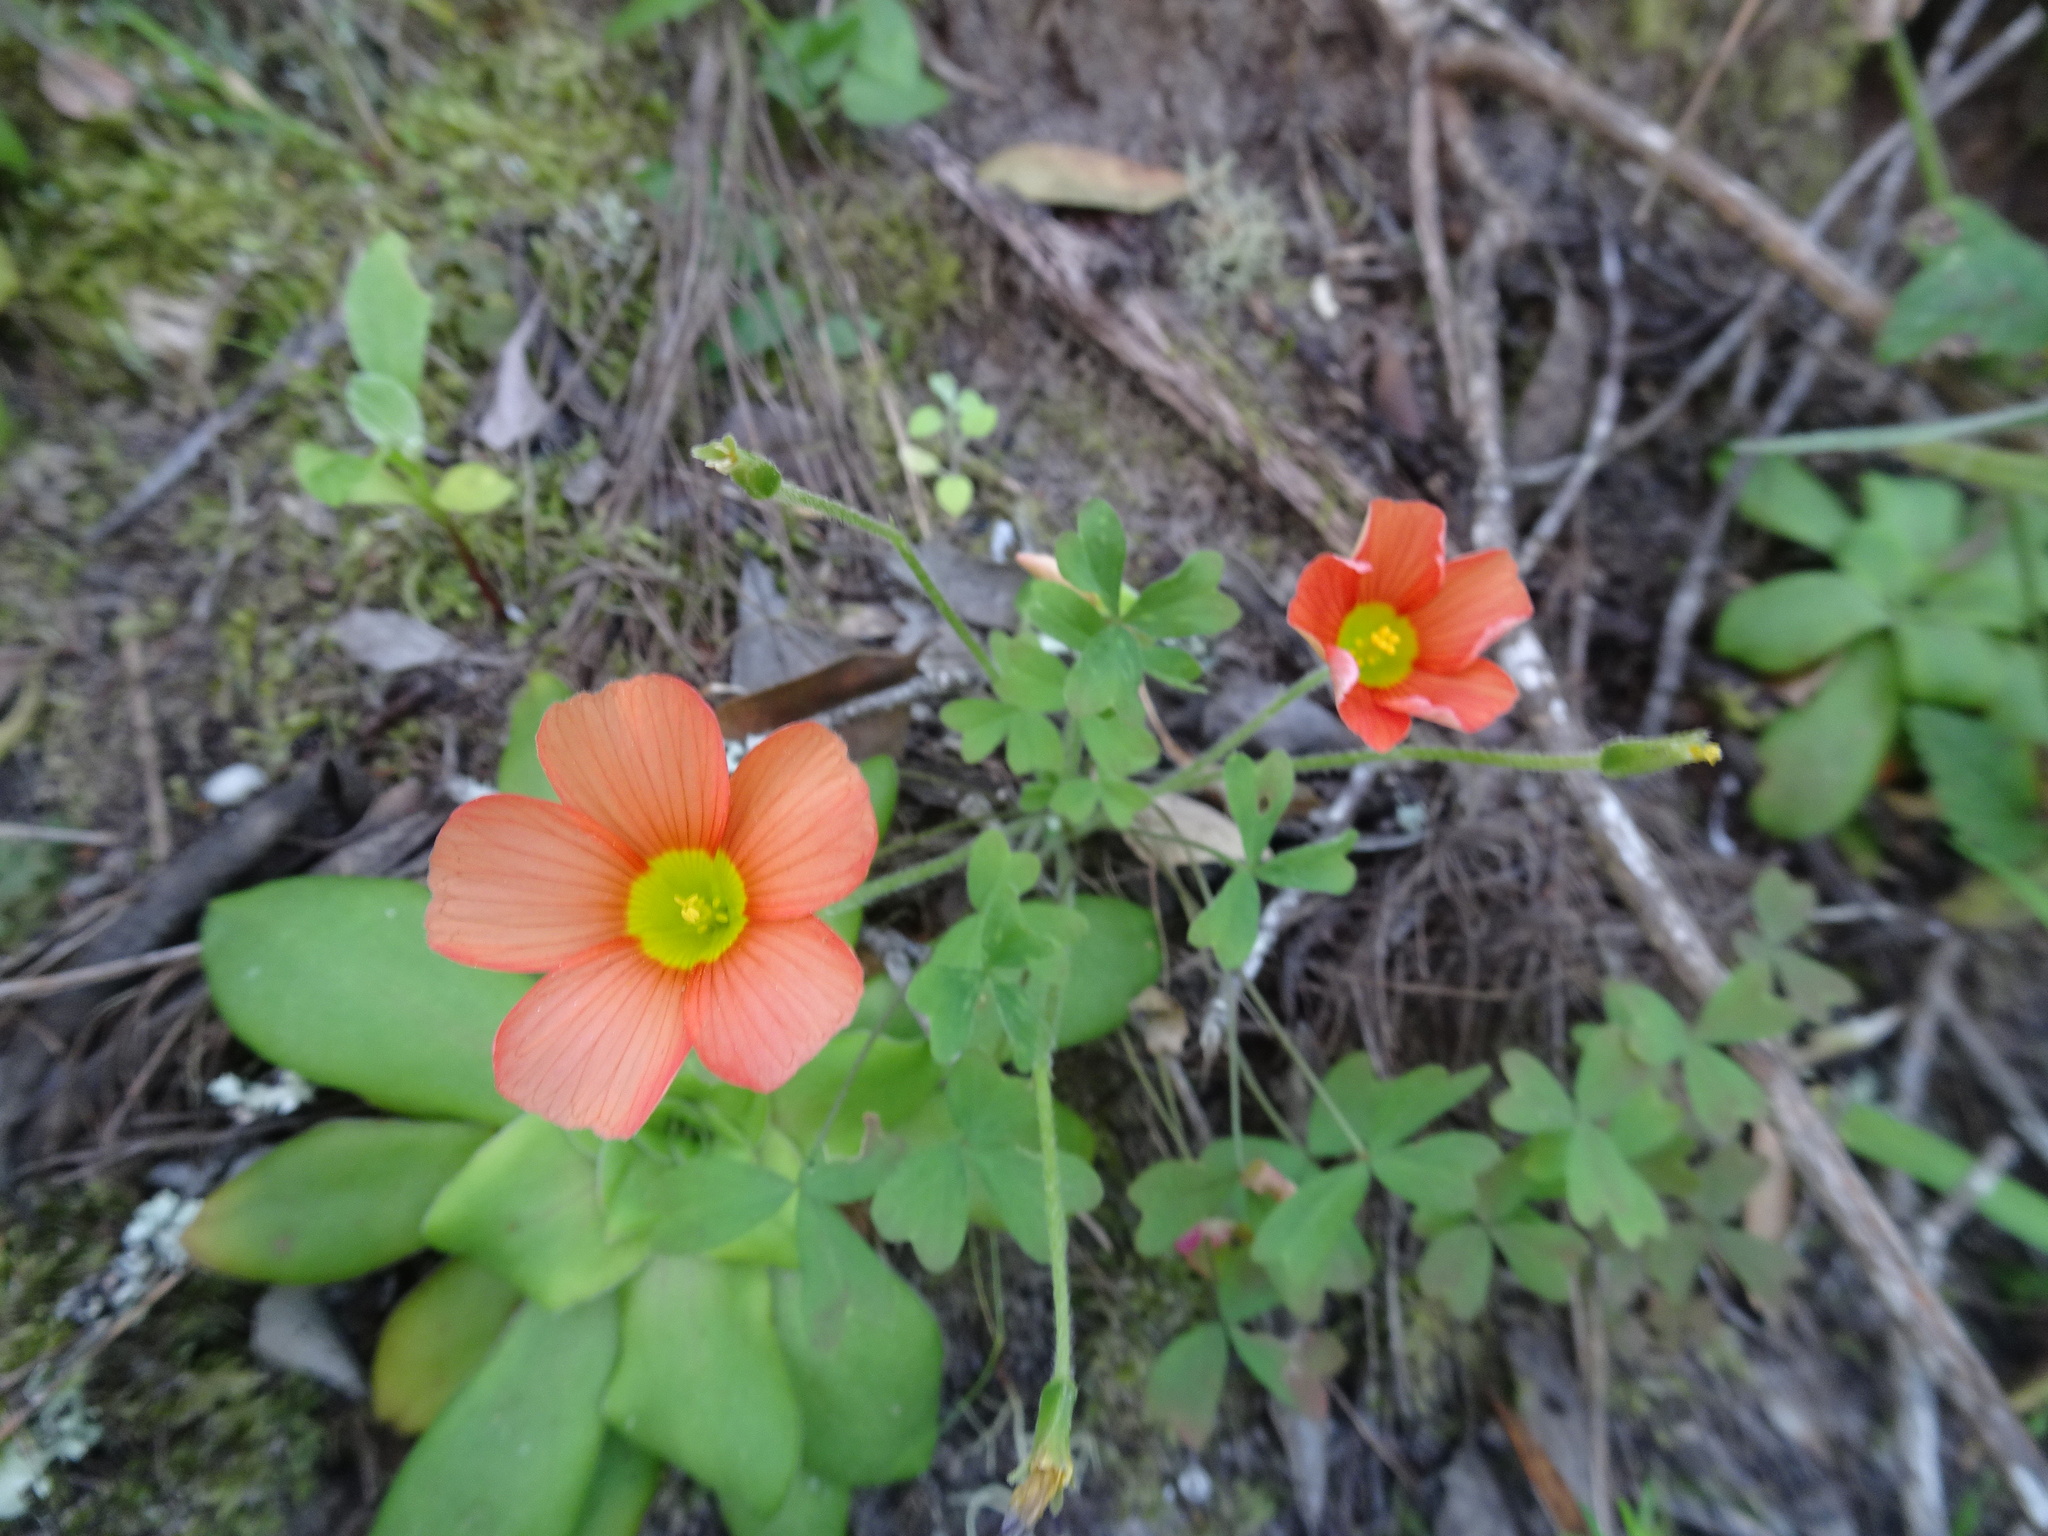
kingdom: Plantae
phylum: Tracheophyta
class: Magnoliopsida
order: Oxalidales
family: Oxalidaceae
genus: Oxalis
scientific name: Oxalis obtusa
